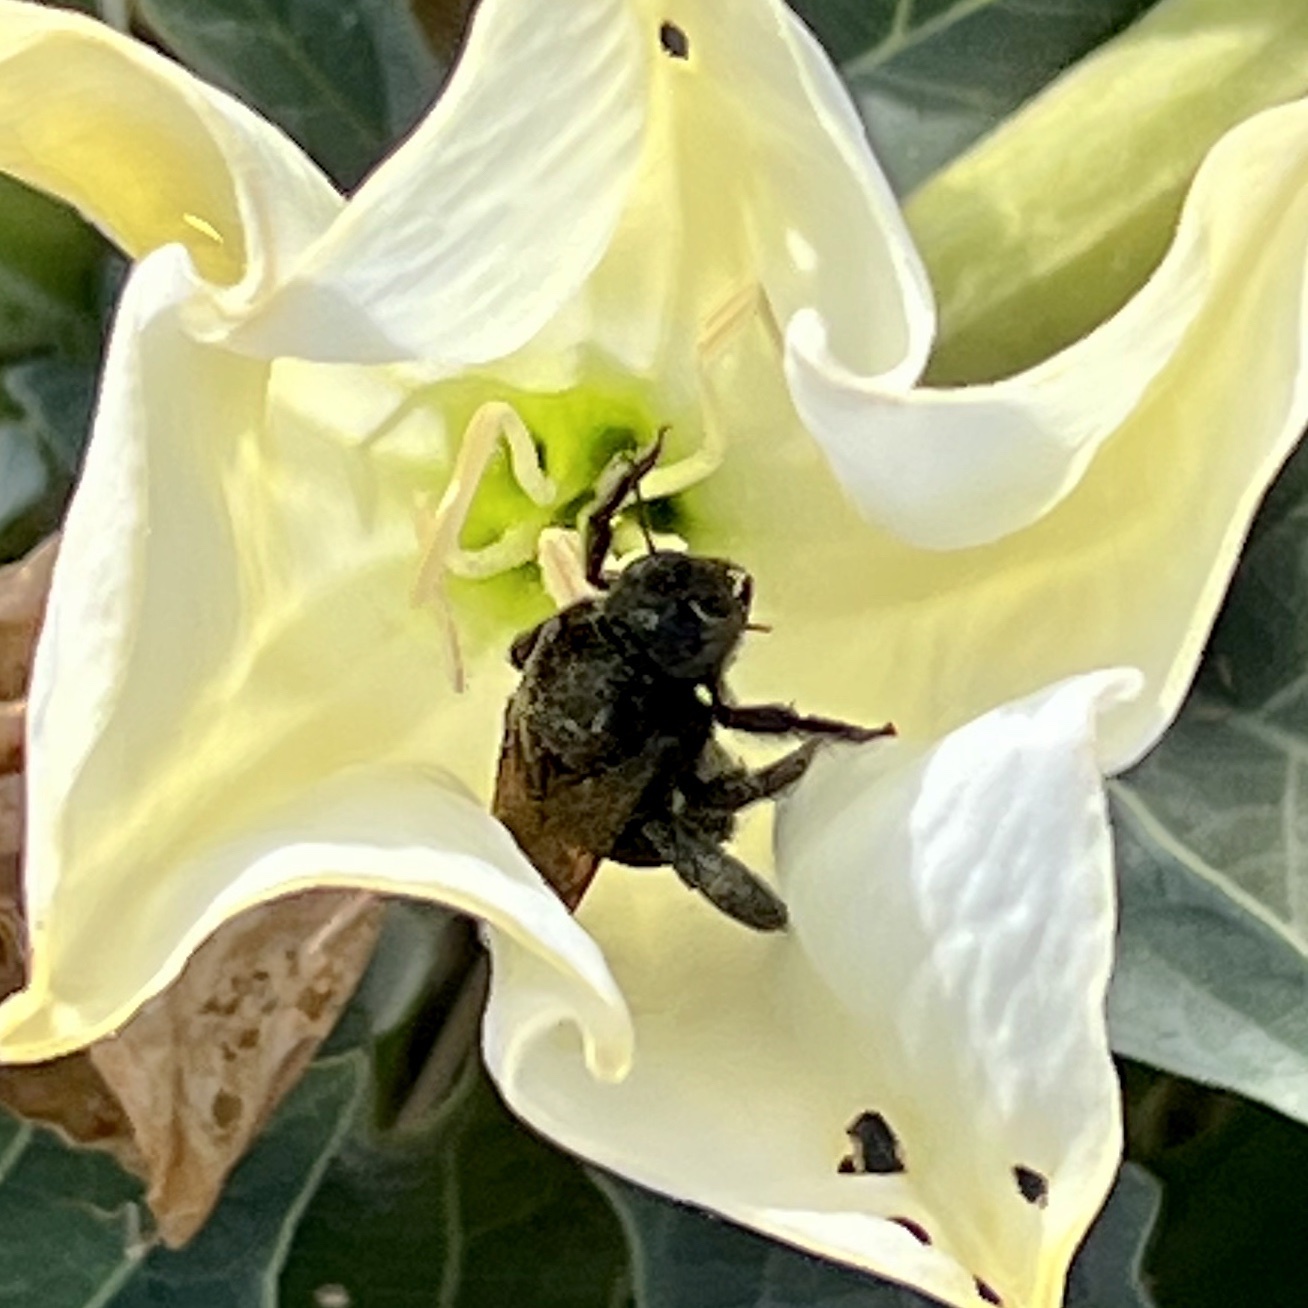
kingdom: Animalia
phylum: Arthropoda
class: Insecta
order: Hymenoptera
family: Apidae
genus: Xylocopa
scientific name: Xylocopa sonorina
